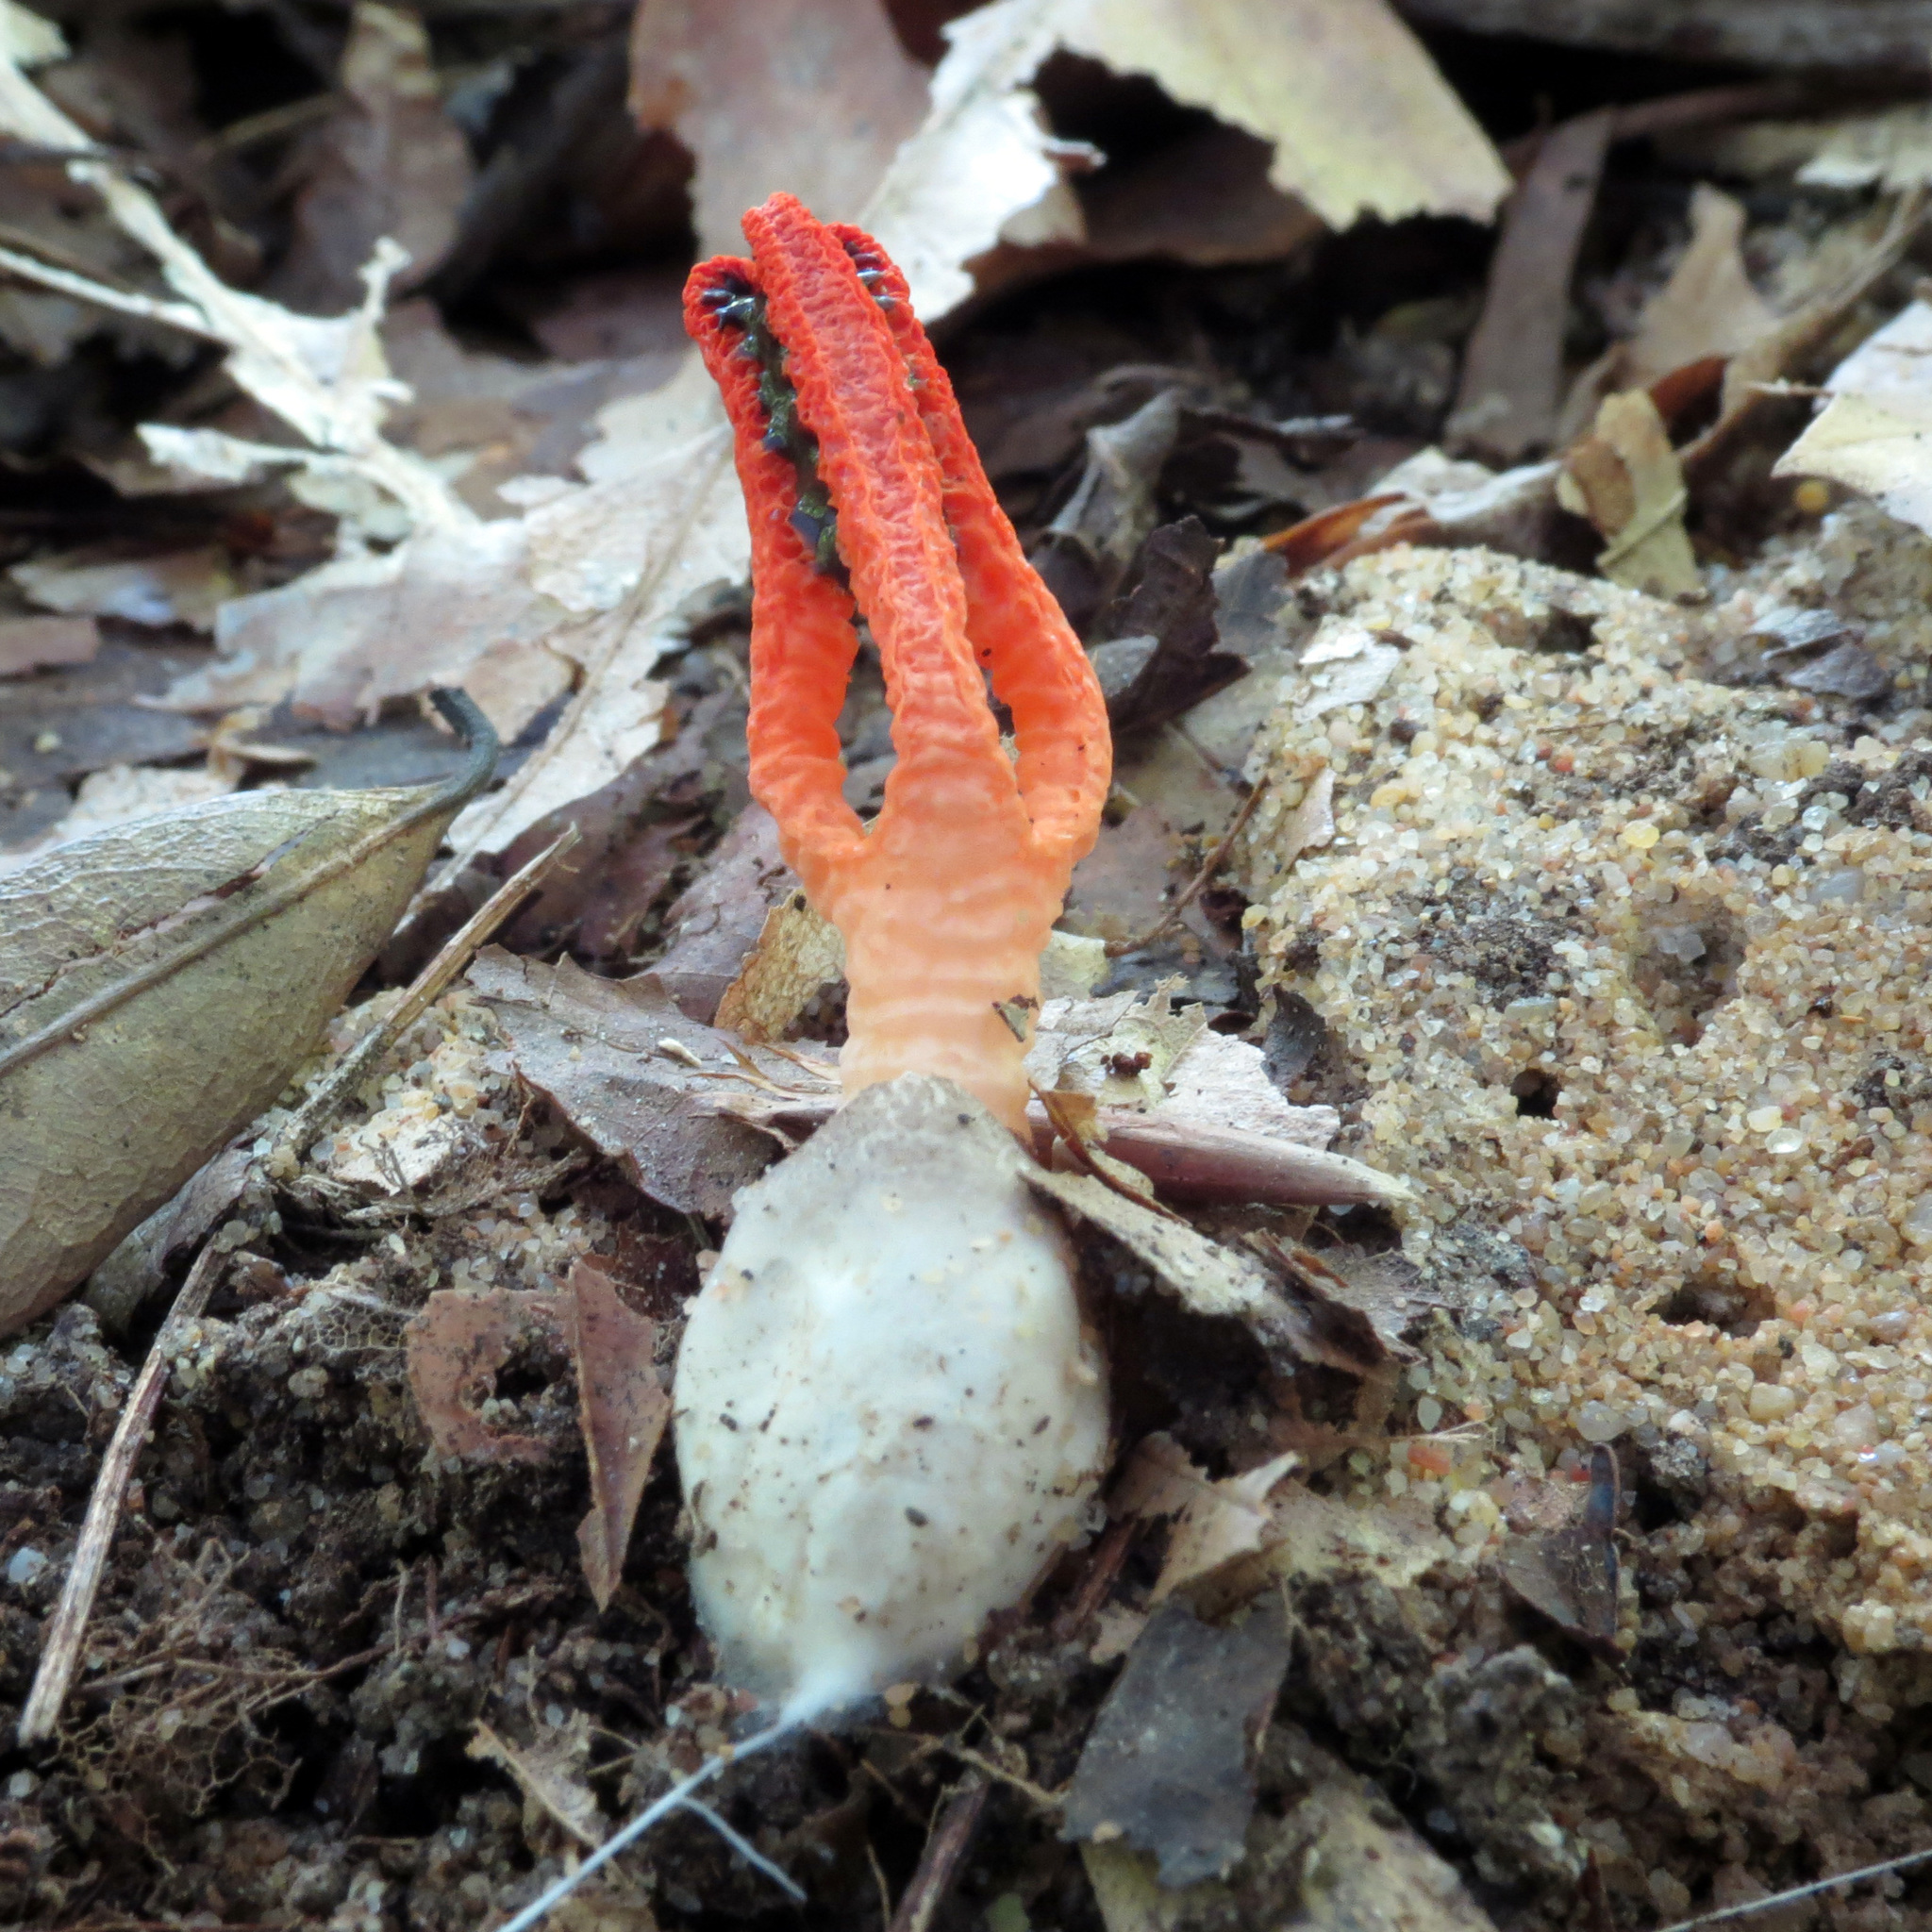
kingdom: Fungi
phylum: Basidiomycota
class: Agaricomycetes
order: Phallales
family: Phallaceae
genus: Pseudocolus
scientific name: Pseudocolus fusiformis
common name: Stinky squid
